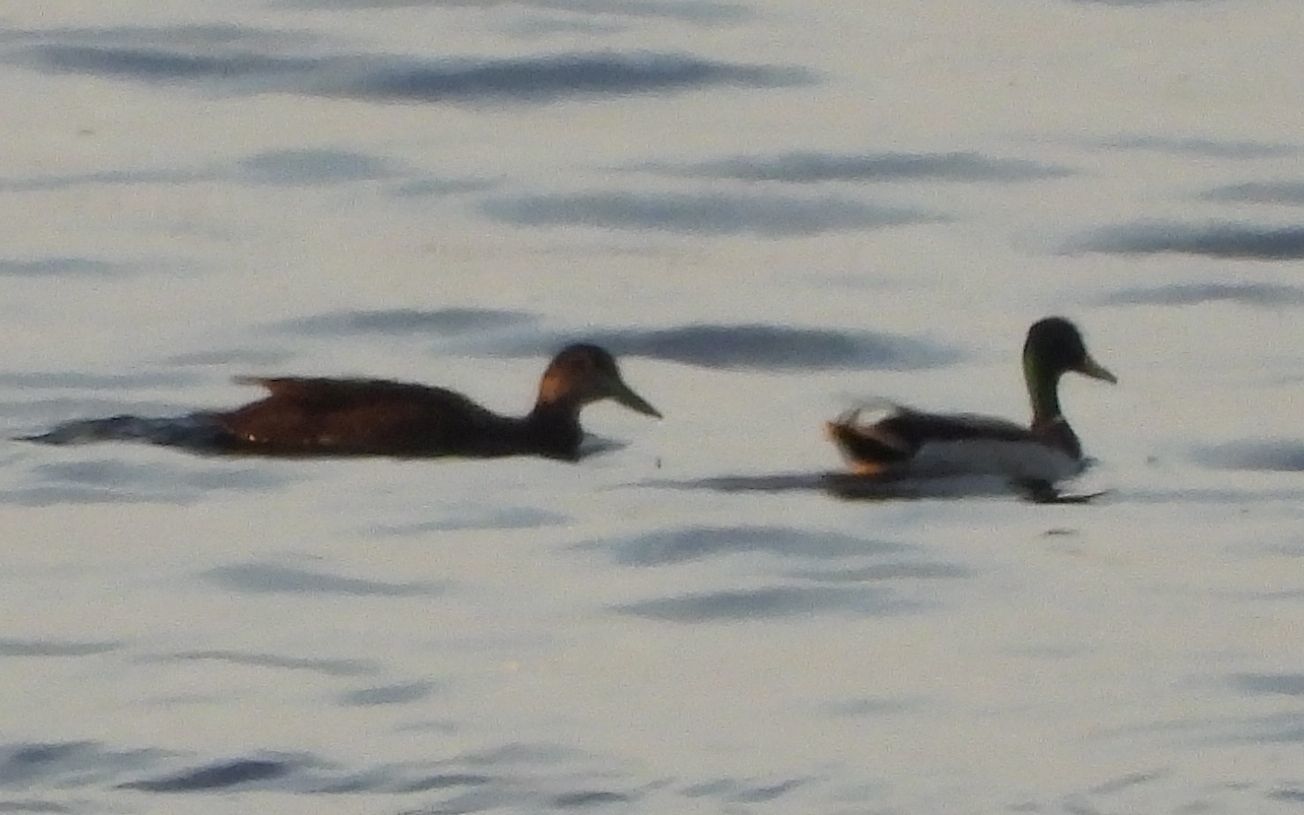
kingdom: Animalia
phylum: Chordata
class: Aves
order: Anseriformes
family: Anatidae
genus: Anas
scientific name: Anas platyrhynchos
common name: Mallard
